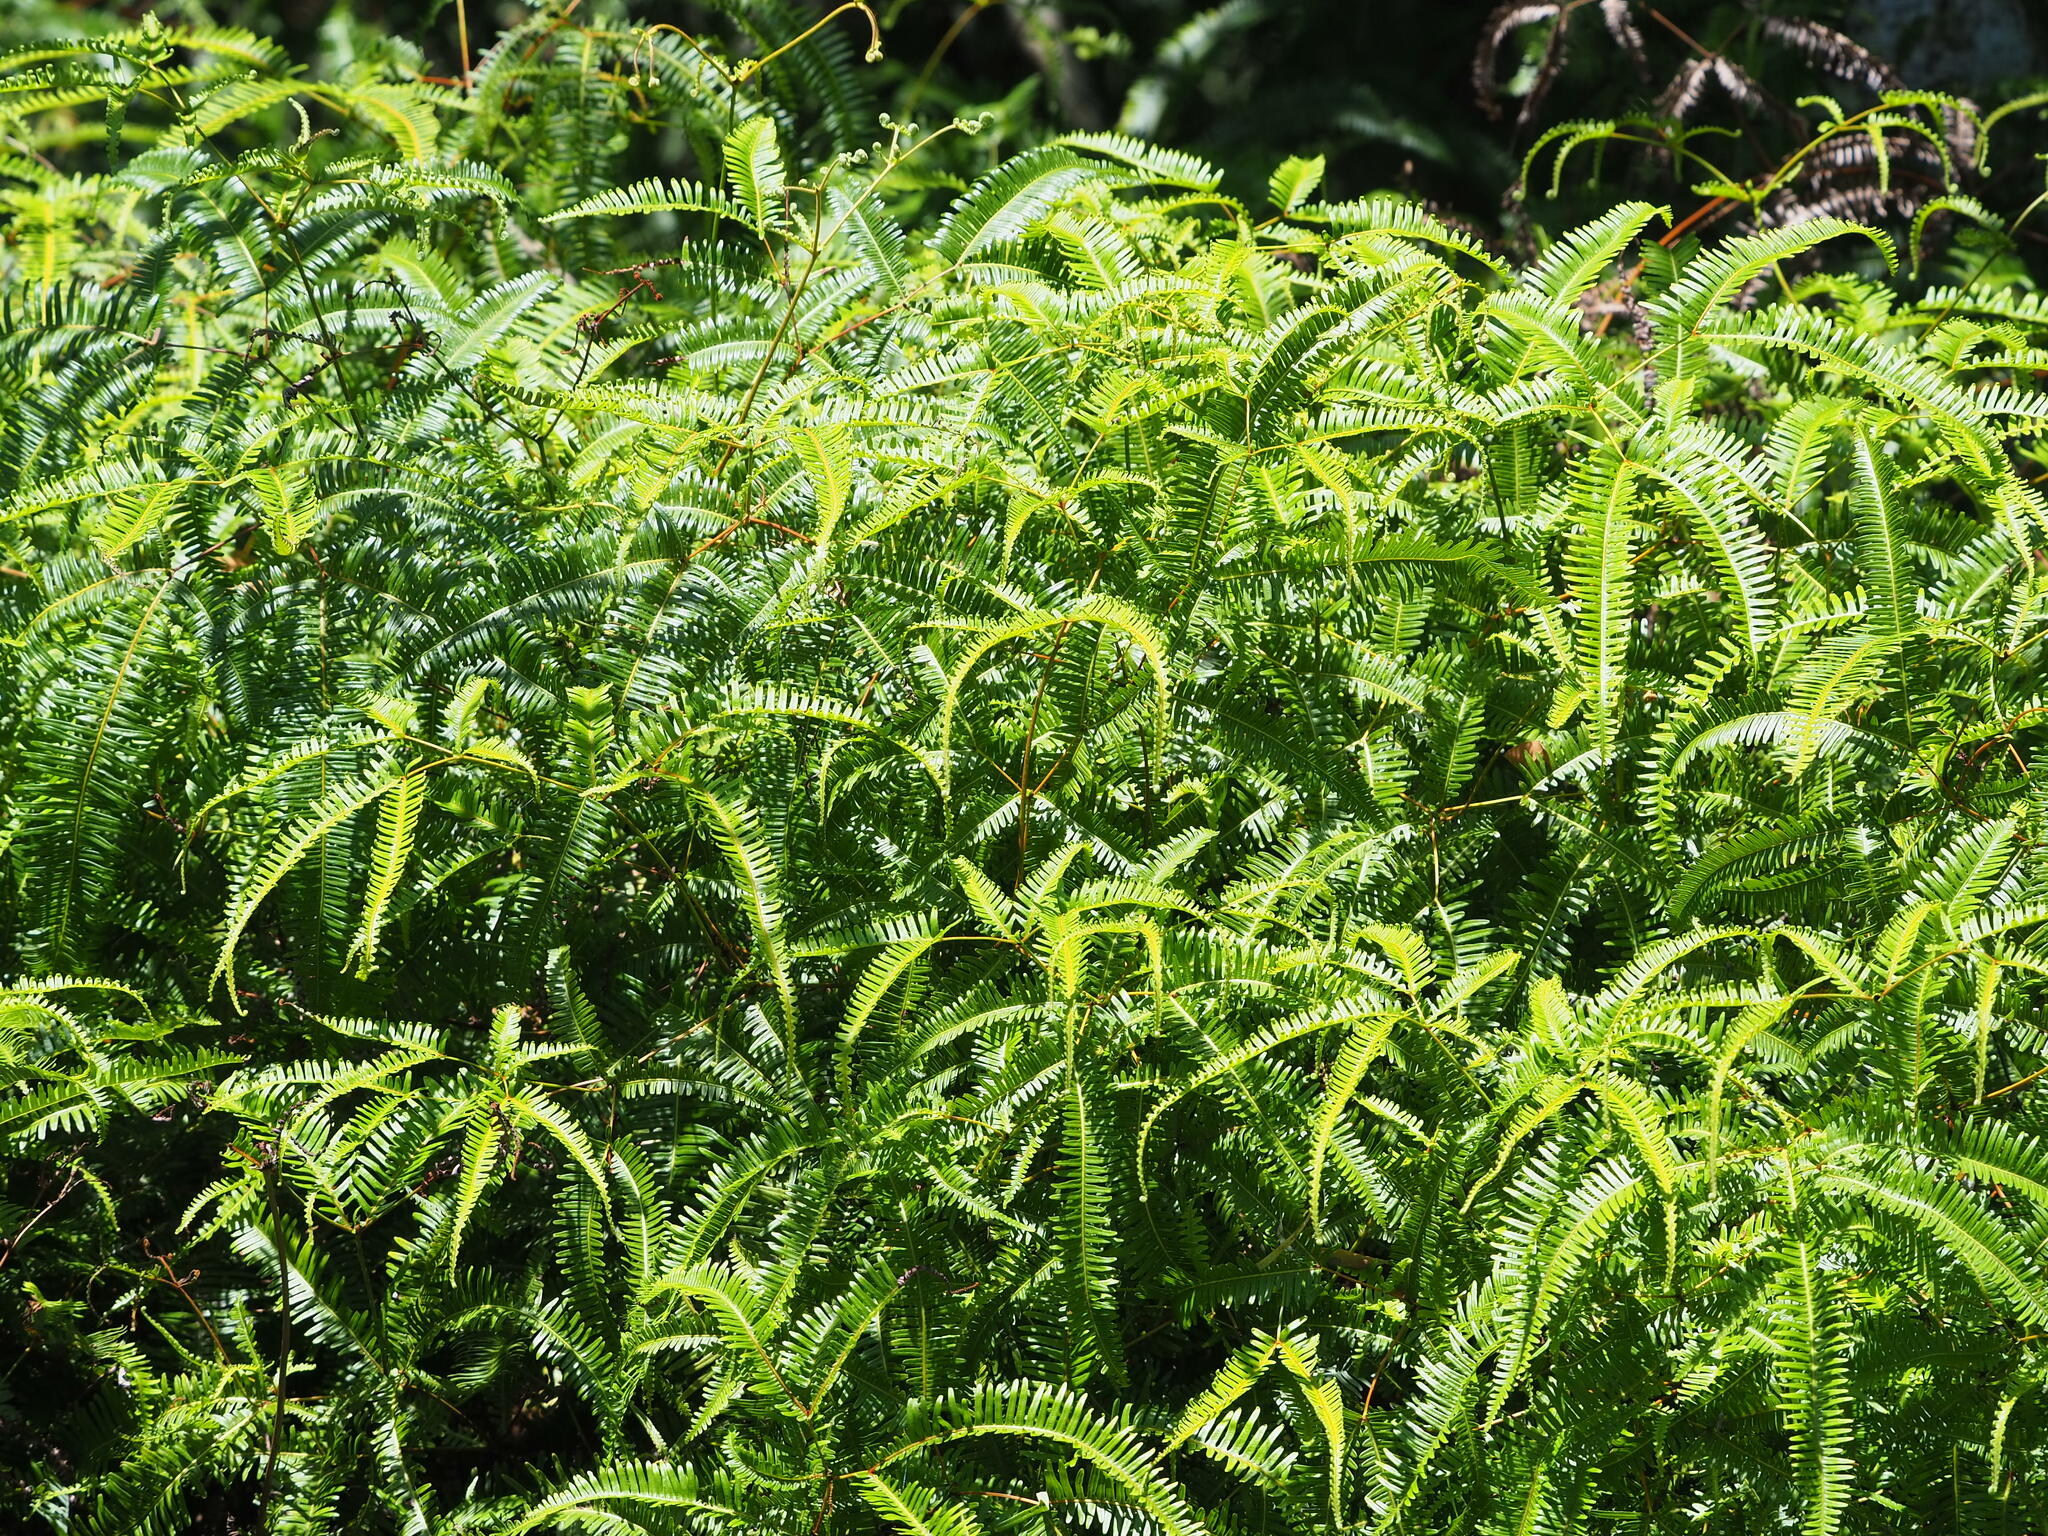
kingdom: Plantae
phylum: Tracheophyta
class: Polypodiopsida
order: Gleicheniales
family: Gleicheniaceae
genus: Dicranopteris
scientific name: Dicranopteris pedata
